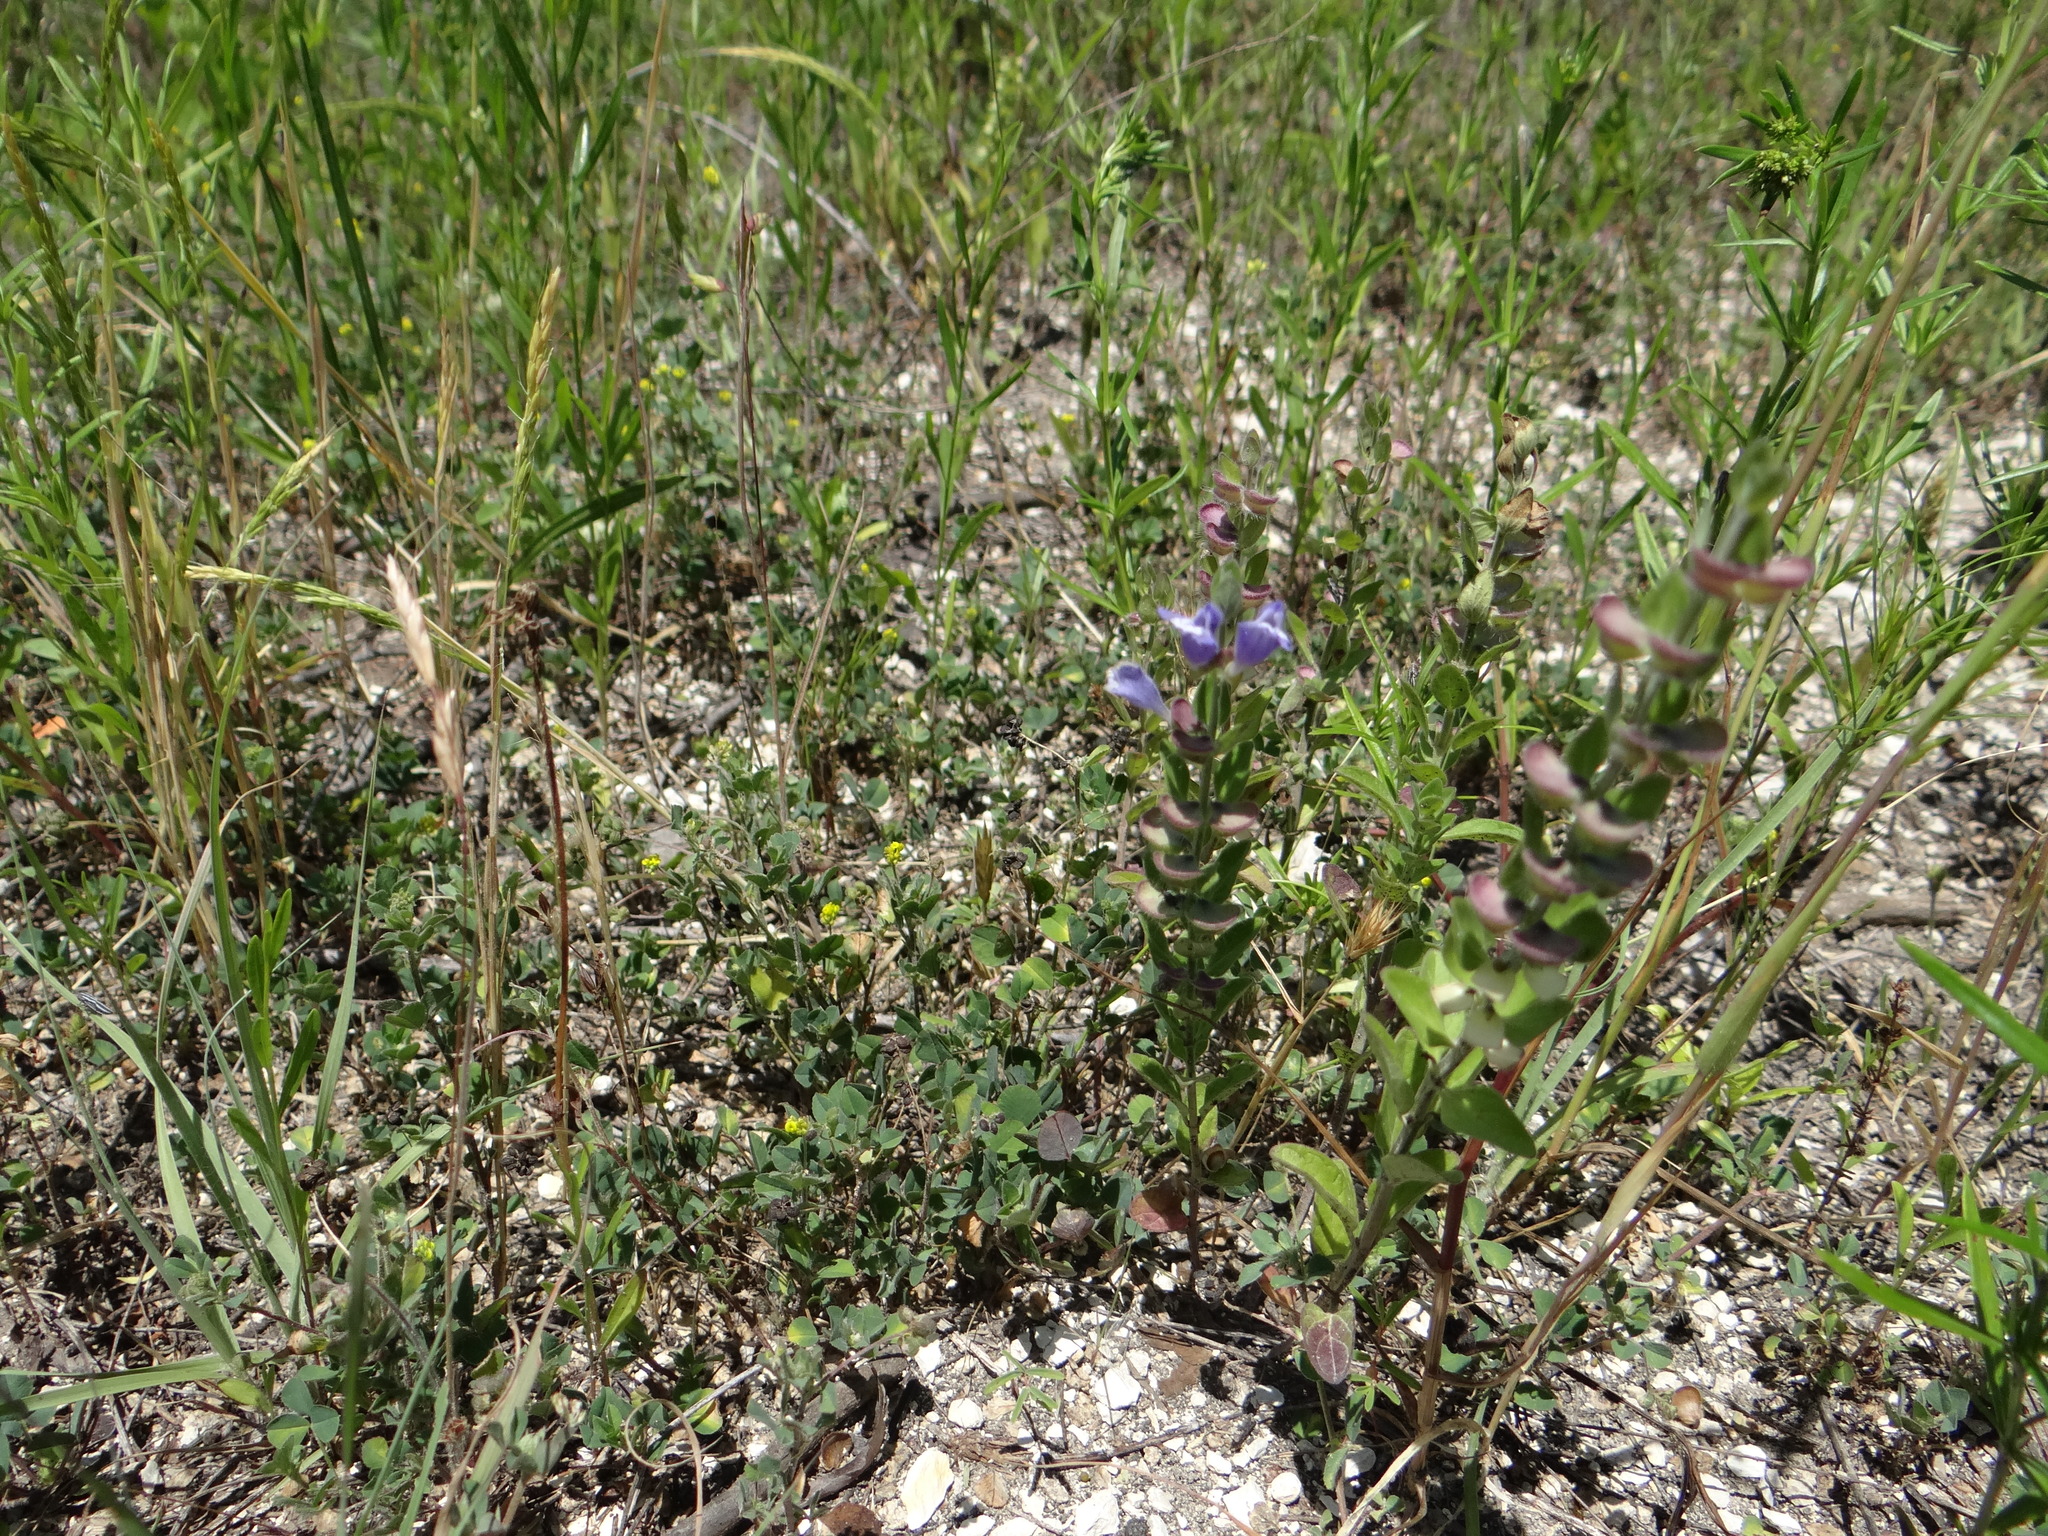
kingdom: Plantae
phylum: Tracheophyta
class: Magnoliopsida
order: Lamiales
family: Lamiaceae
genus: Scutellaria
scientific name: Scutellaria drummondii
